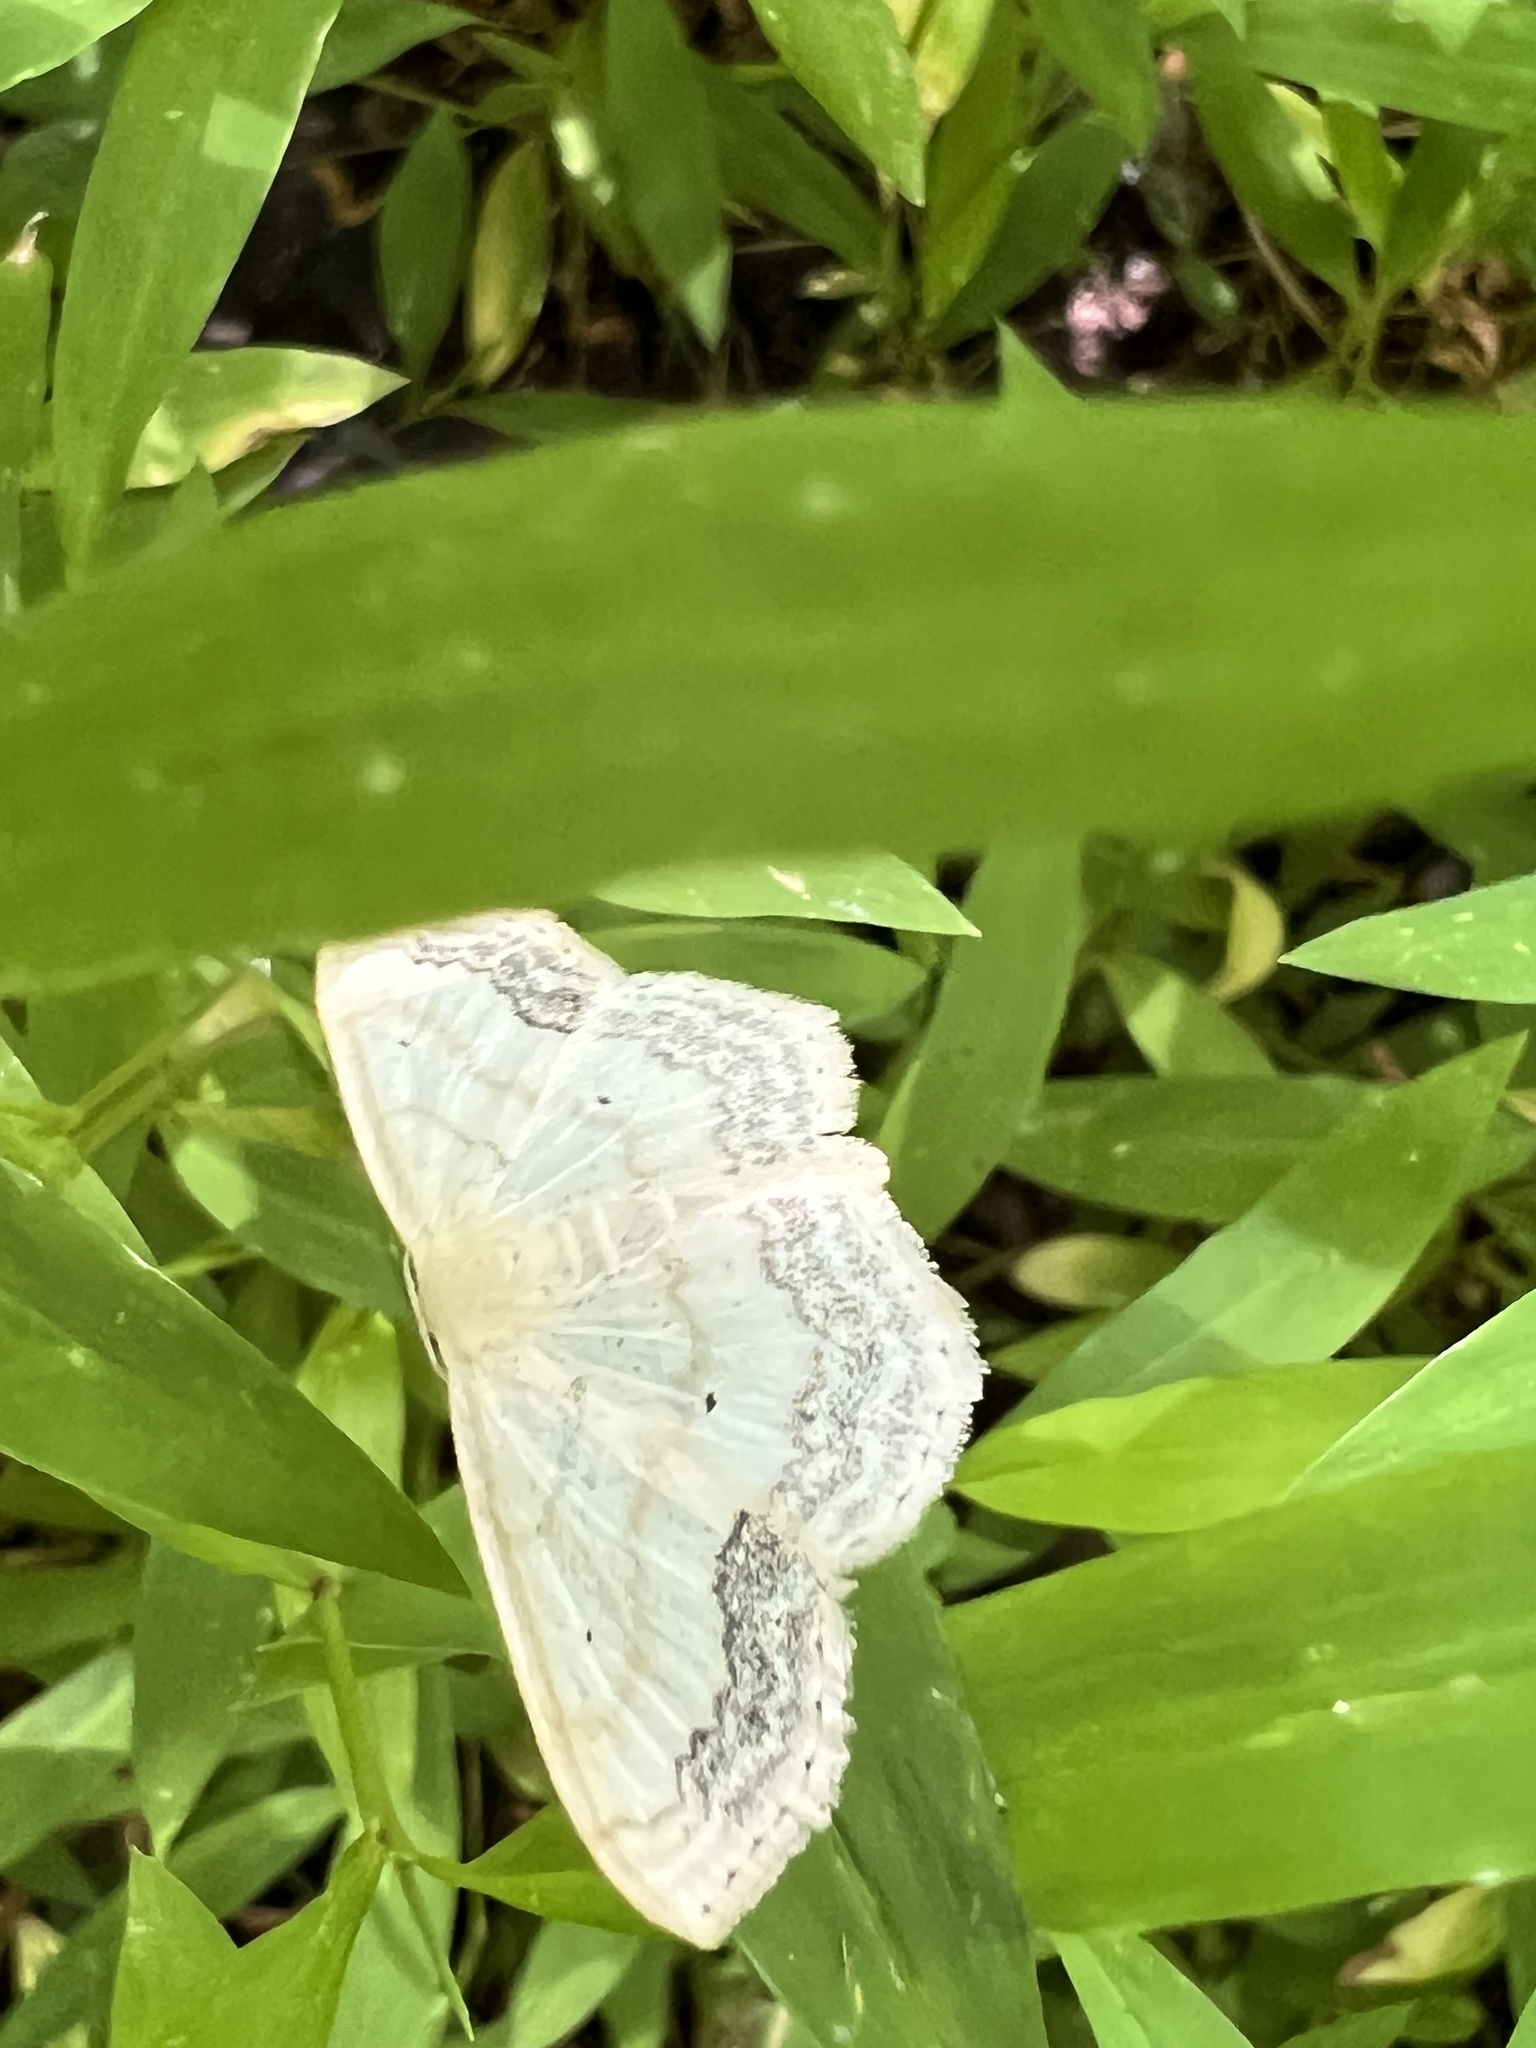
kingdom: Animalia
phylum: Arthropoda
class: Insecta
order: Lepidoptera
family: Geometridae
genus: Scopula
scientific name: Scopula limboundata
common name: Large lace border
